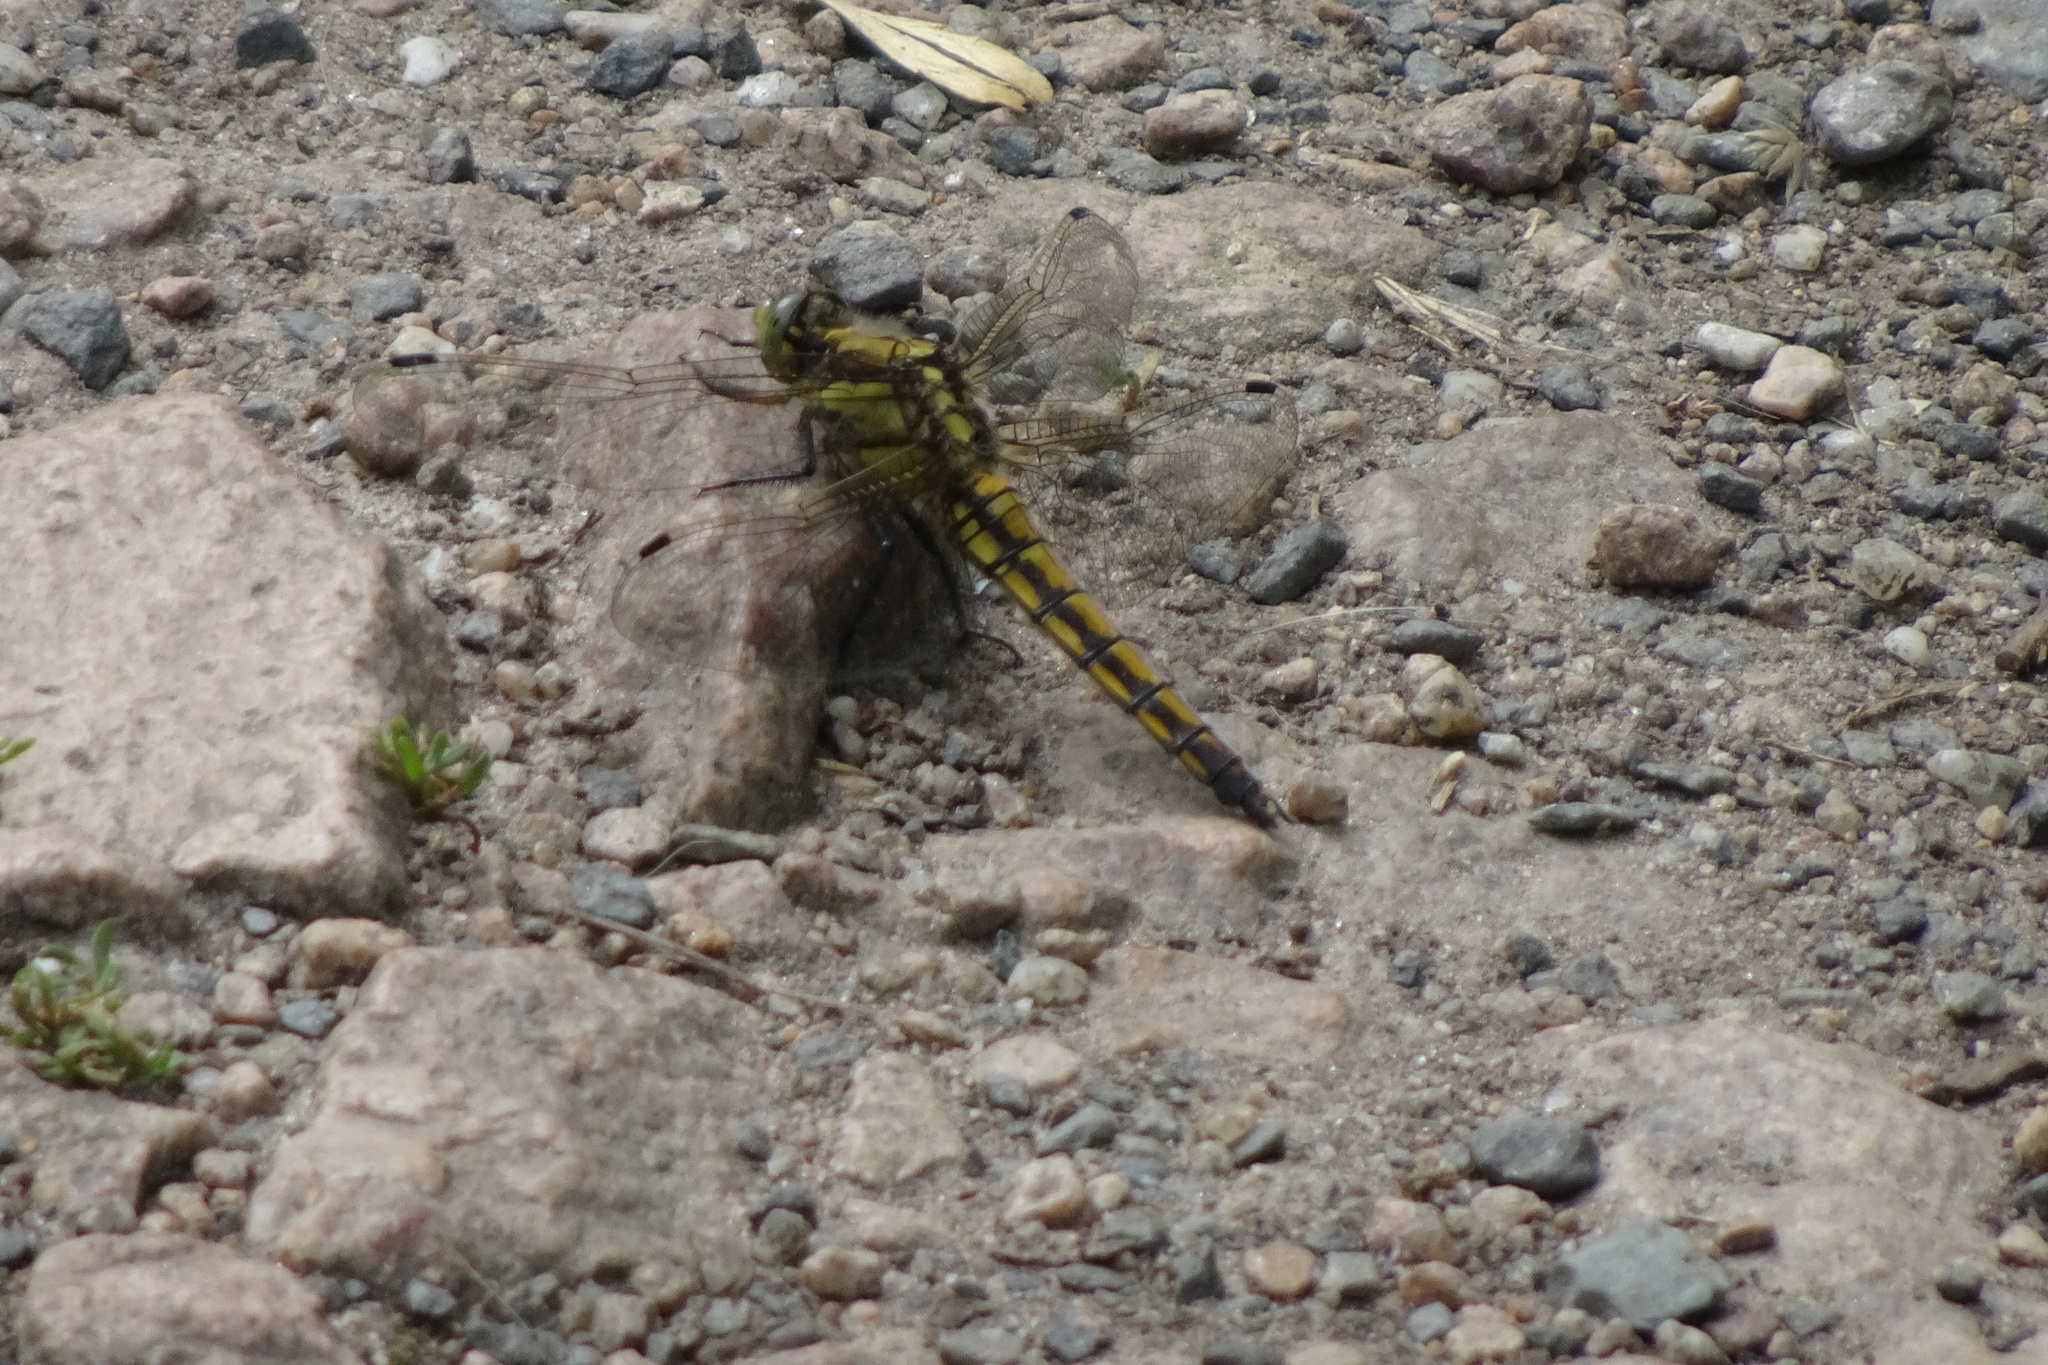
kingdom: Animalia
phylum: Arthropoda
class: Insecta
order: Odonata
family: Libellulidae
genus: Orthetrum
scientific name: Orthetrum cancellatum
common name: Black-tailed skimmer
